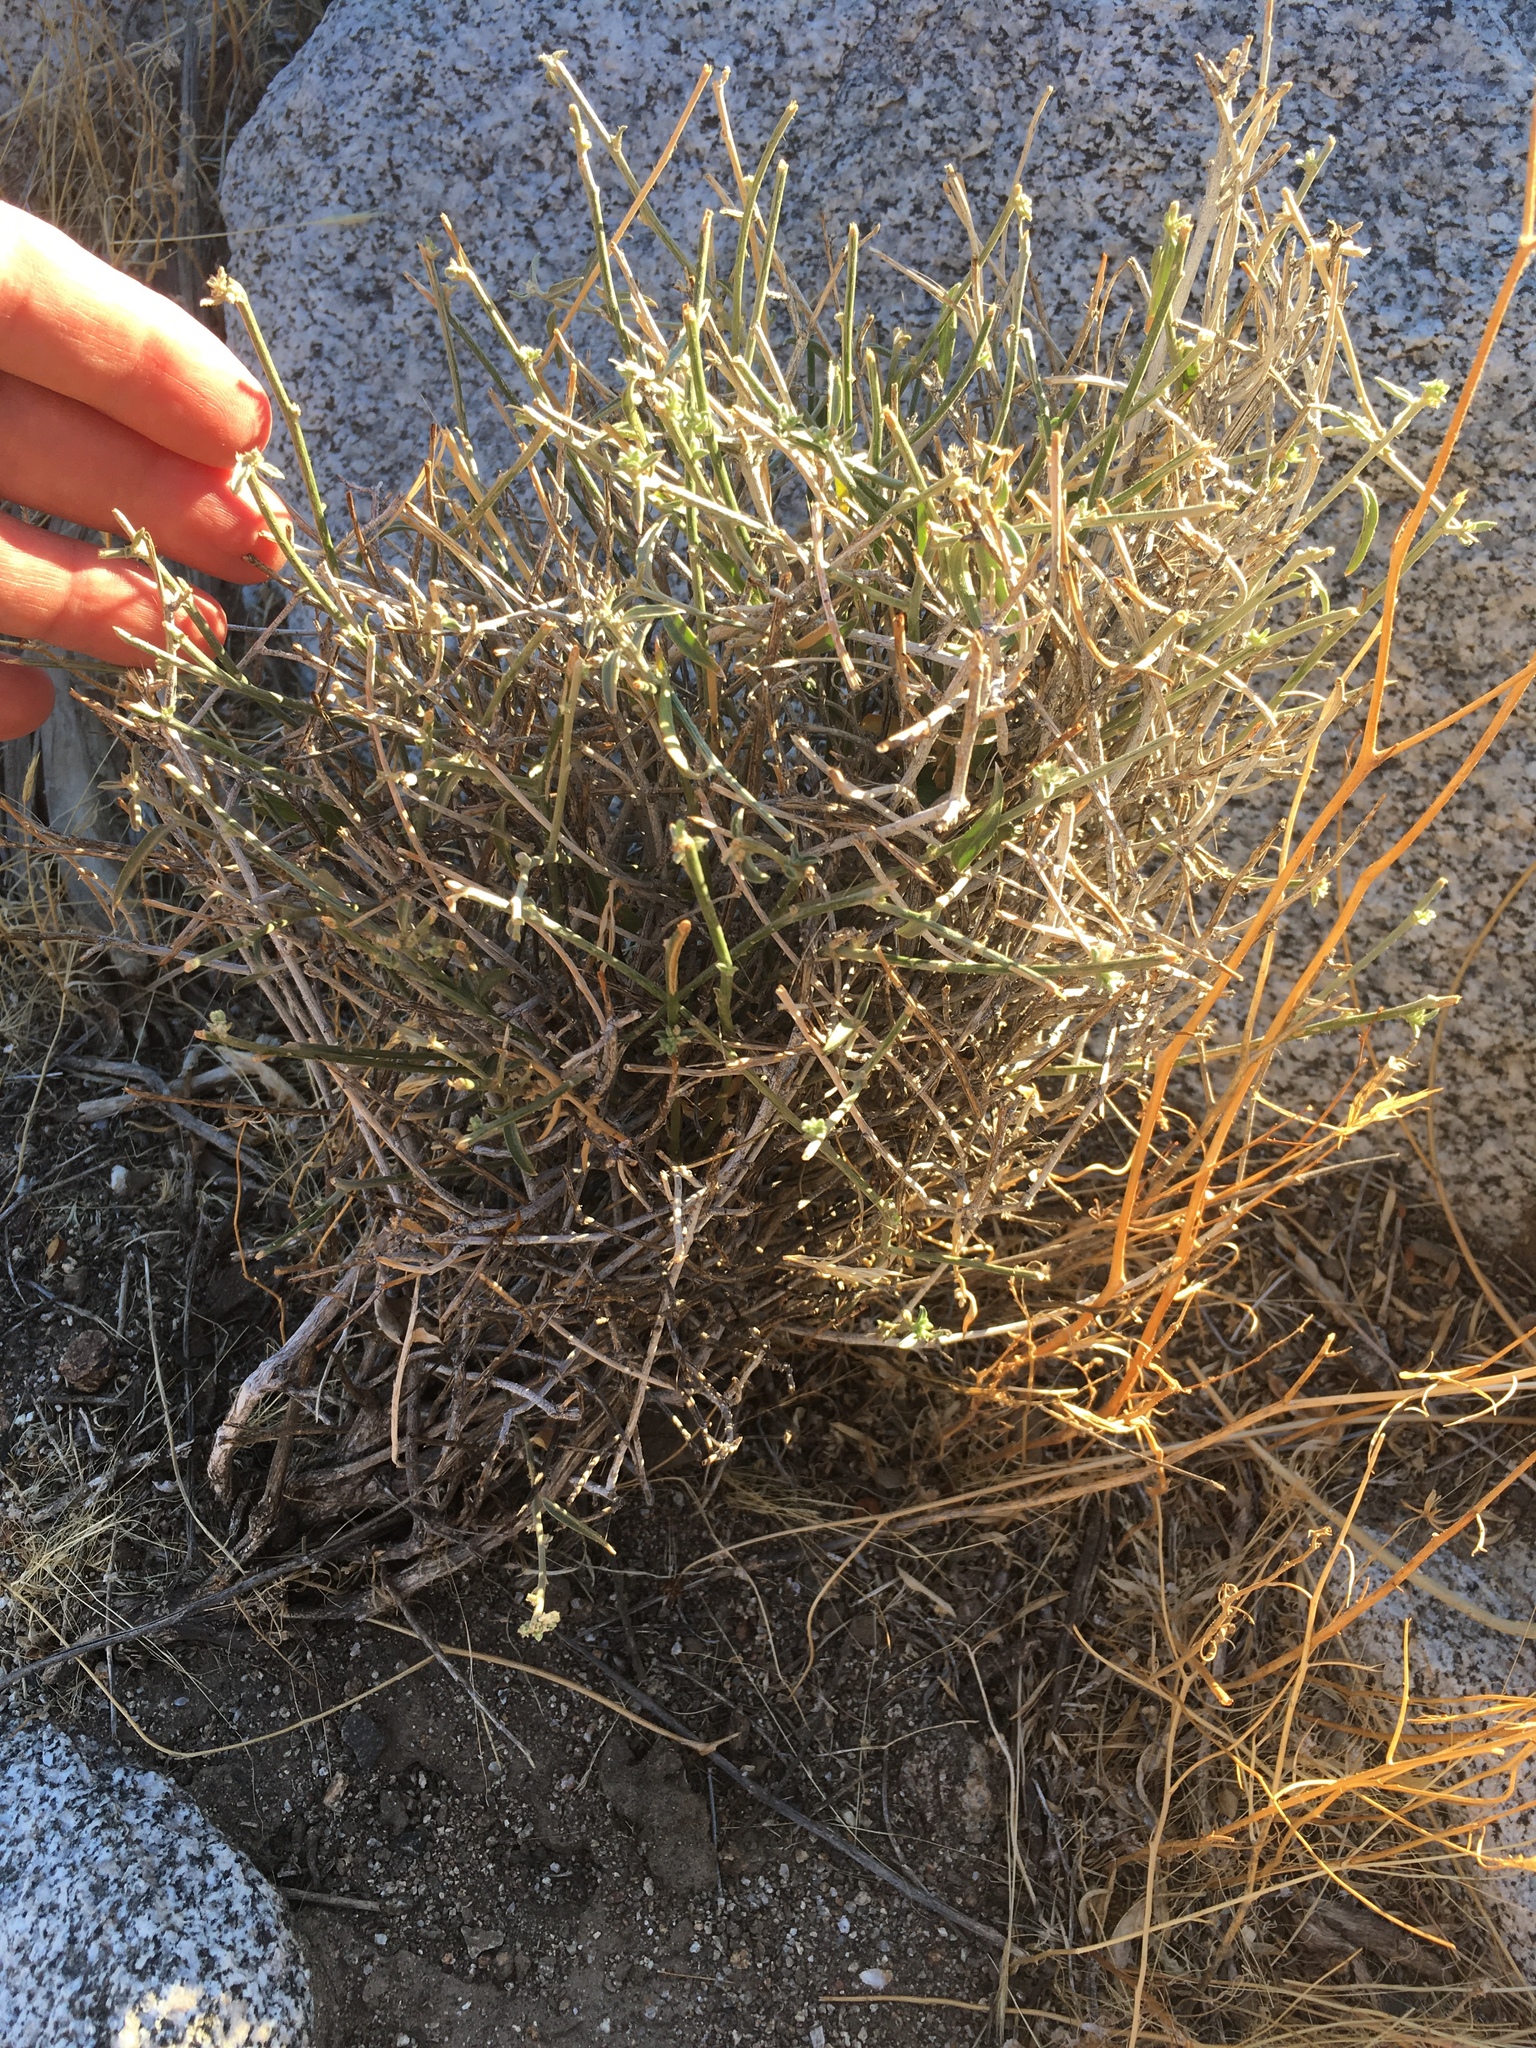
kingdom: Plantae
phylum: Tracheophyta
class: Magnoliopsida
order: Malpighiales
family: Euphorbiaceae
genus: Ditaxis
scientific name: Ditaxis lanceolata
